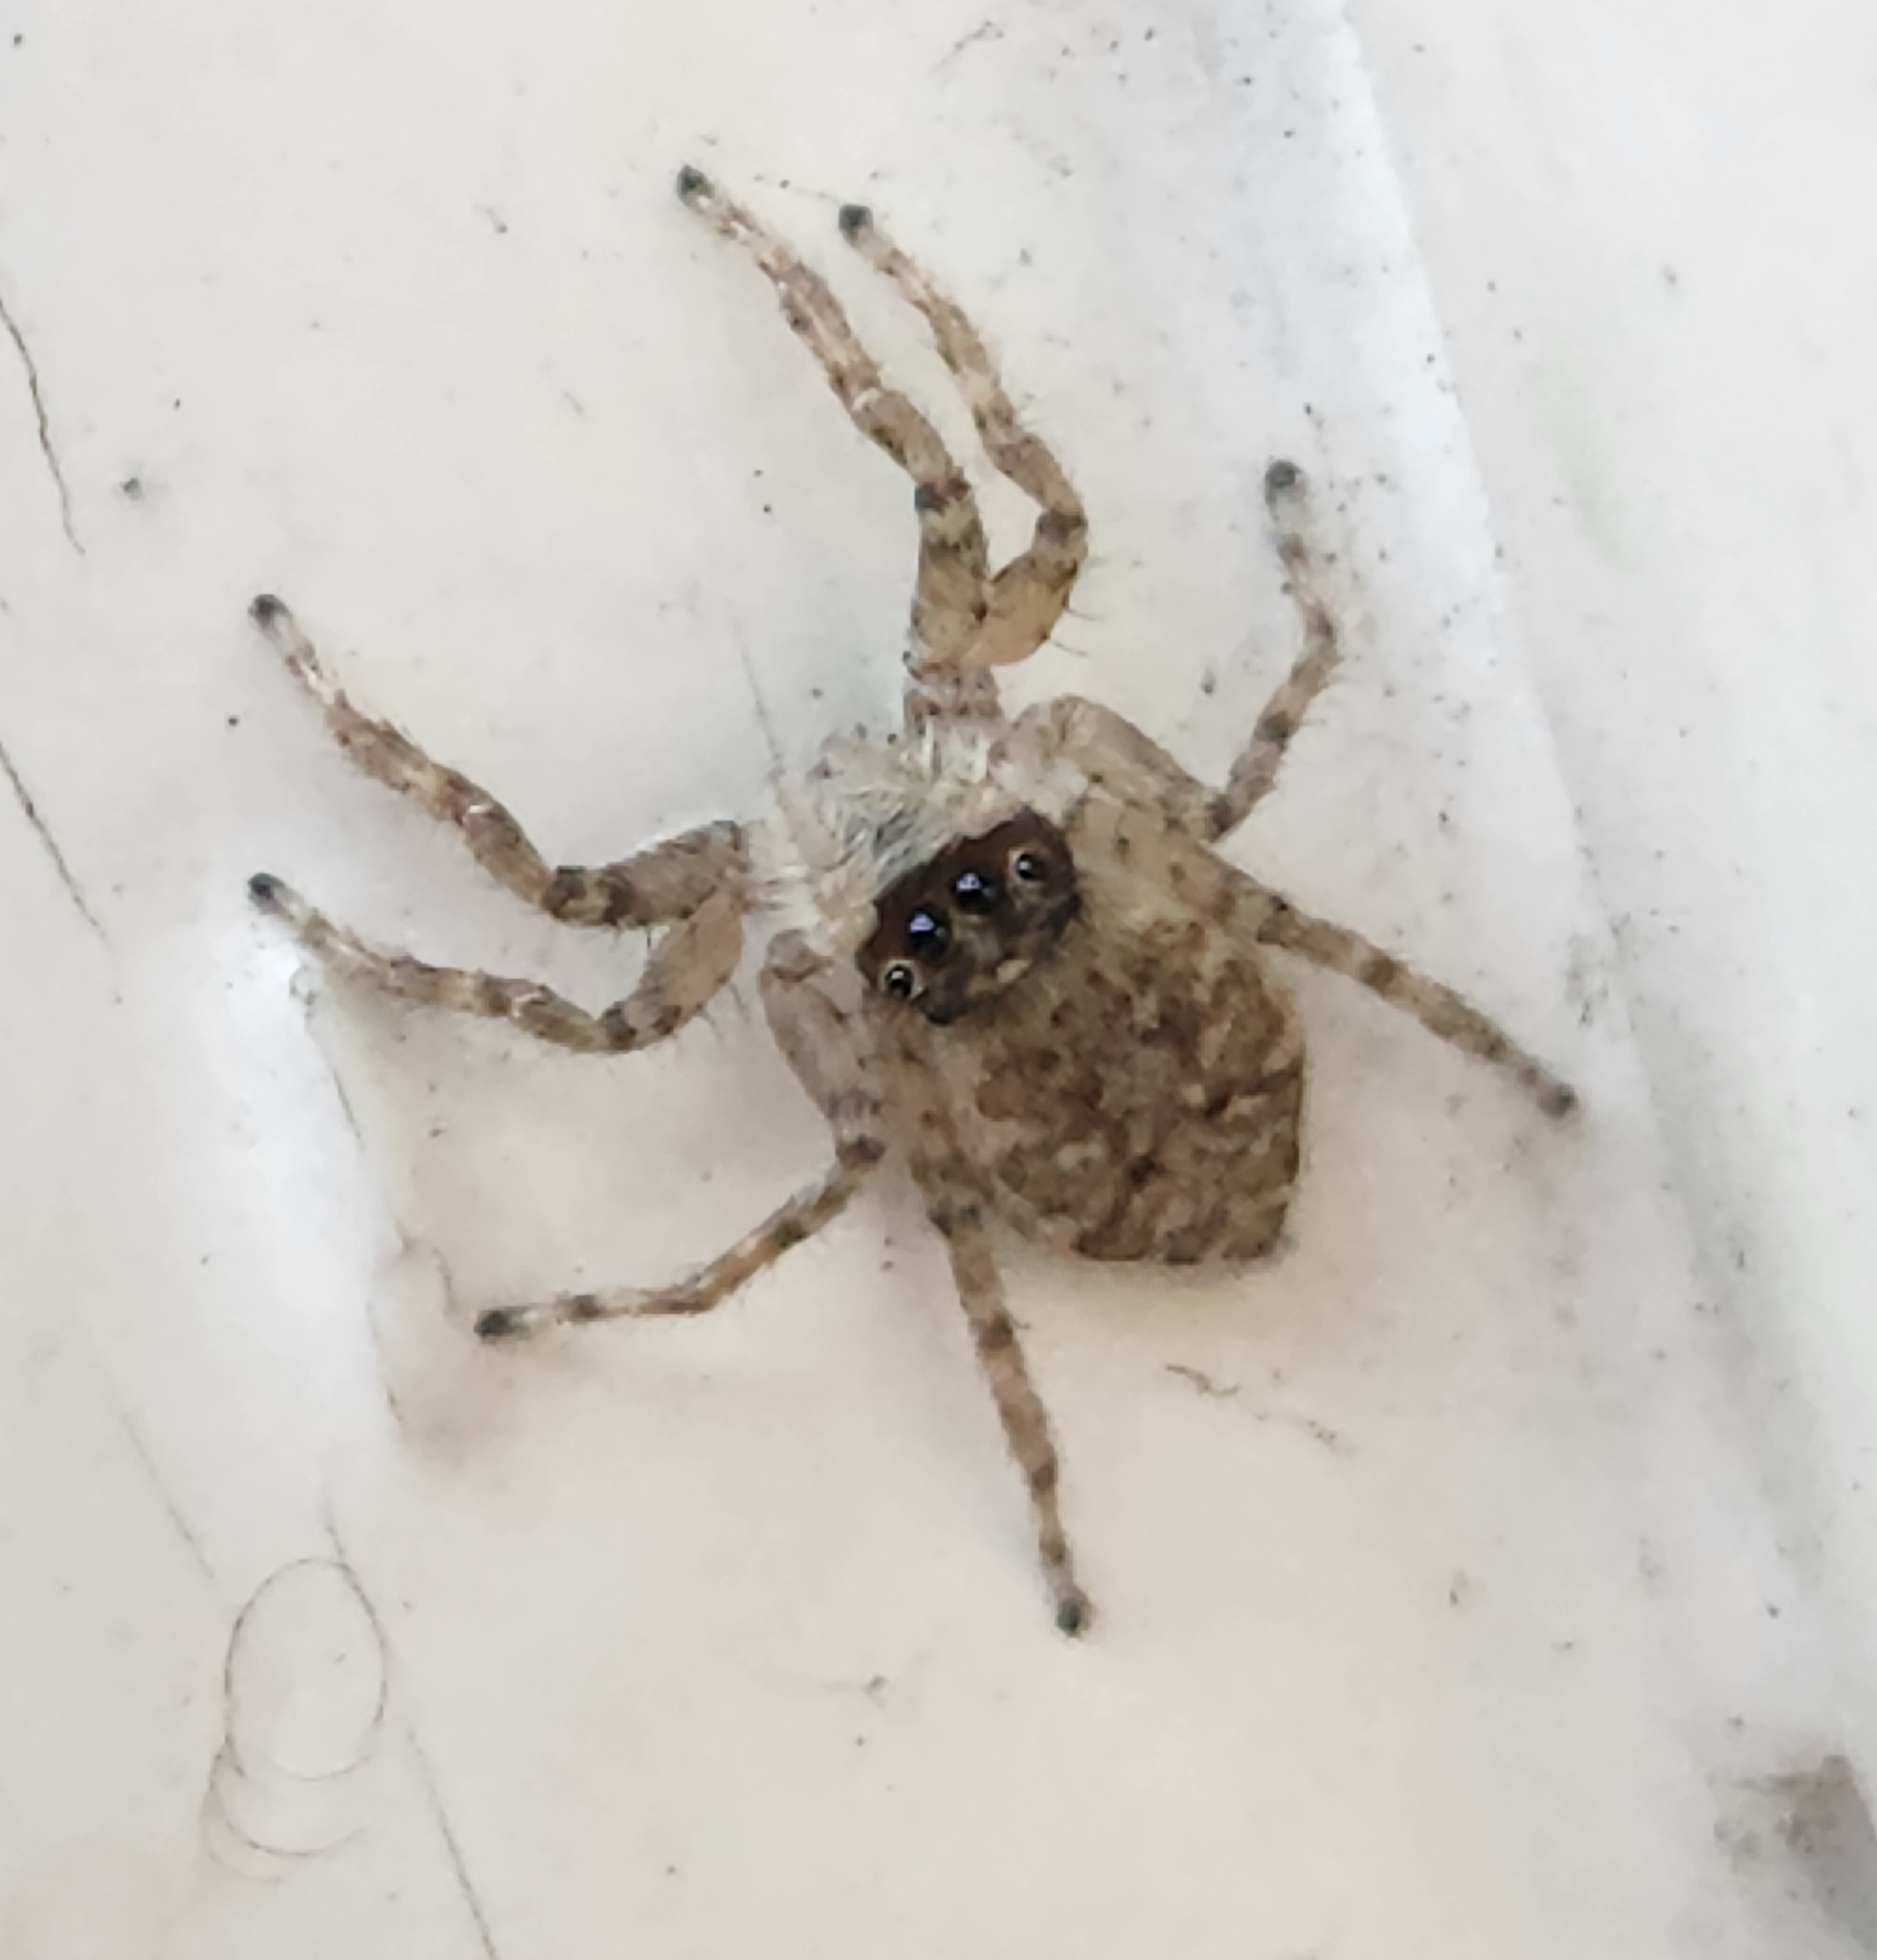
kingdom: Animalia
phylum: Arthropoda
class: Arachnida
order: Araneae
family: Salticidae
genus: Menemerus
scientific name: Menemerus semilimbatus
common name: Jumping spider
